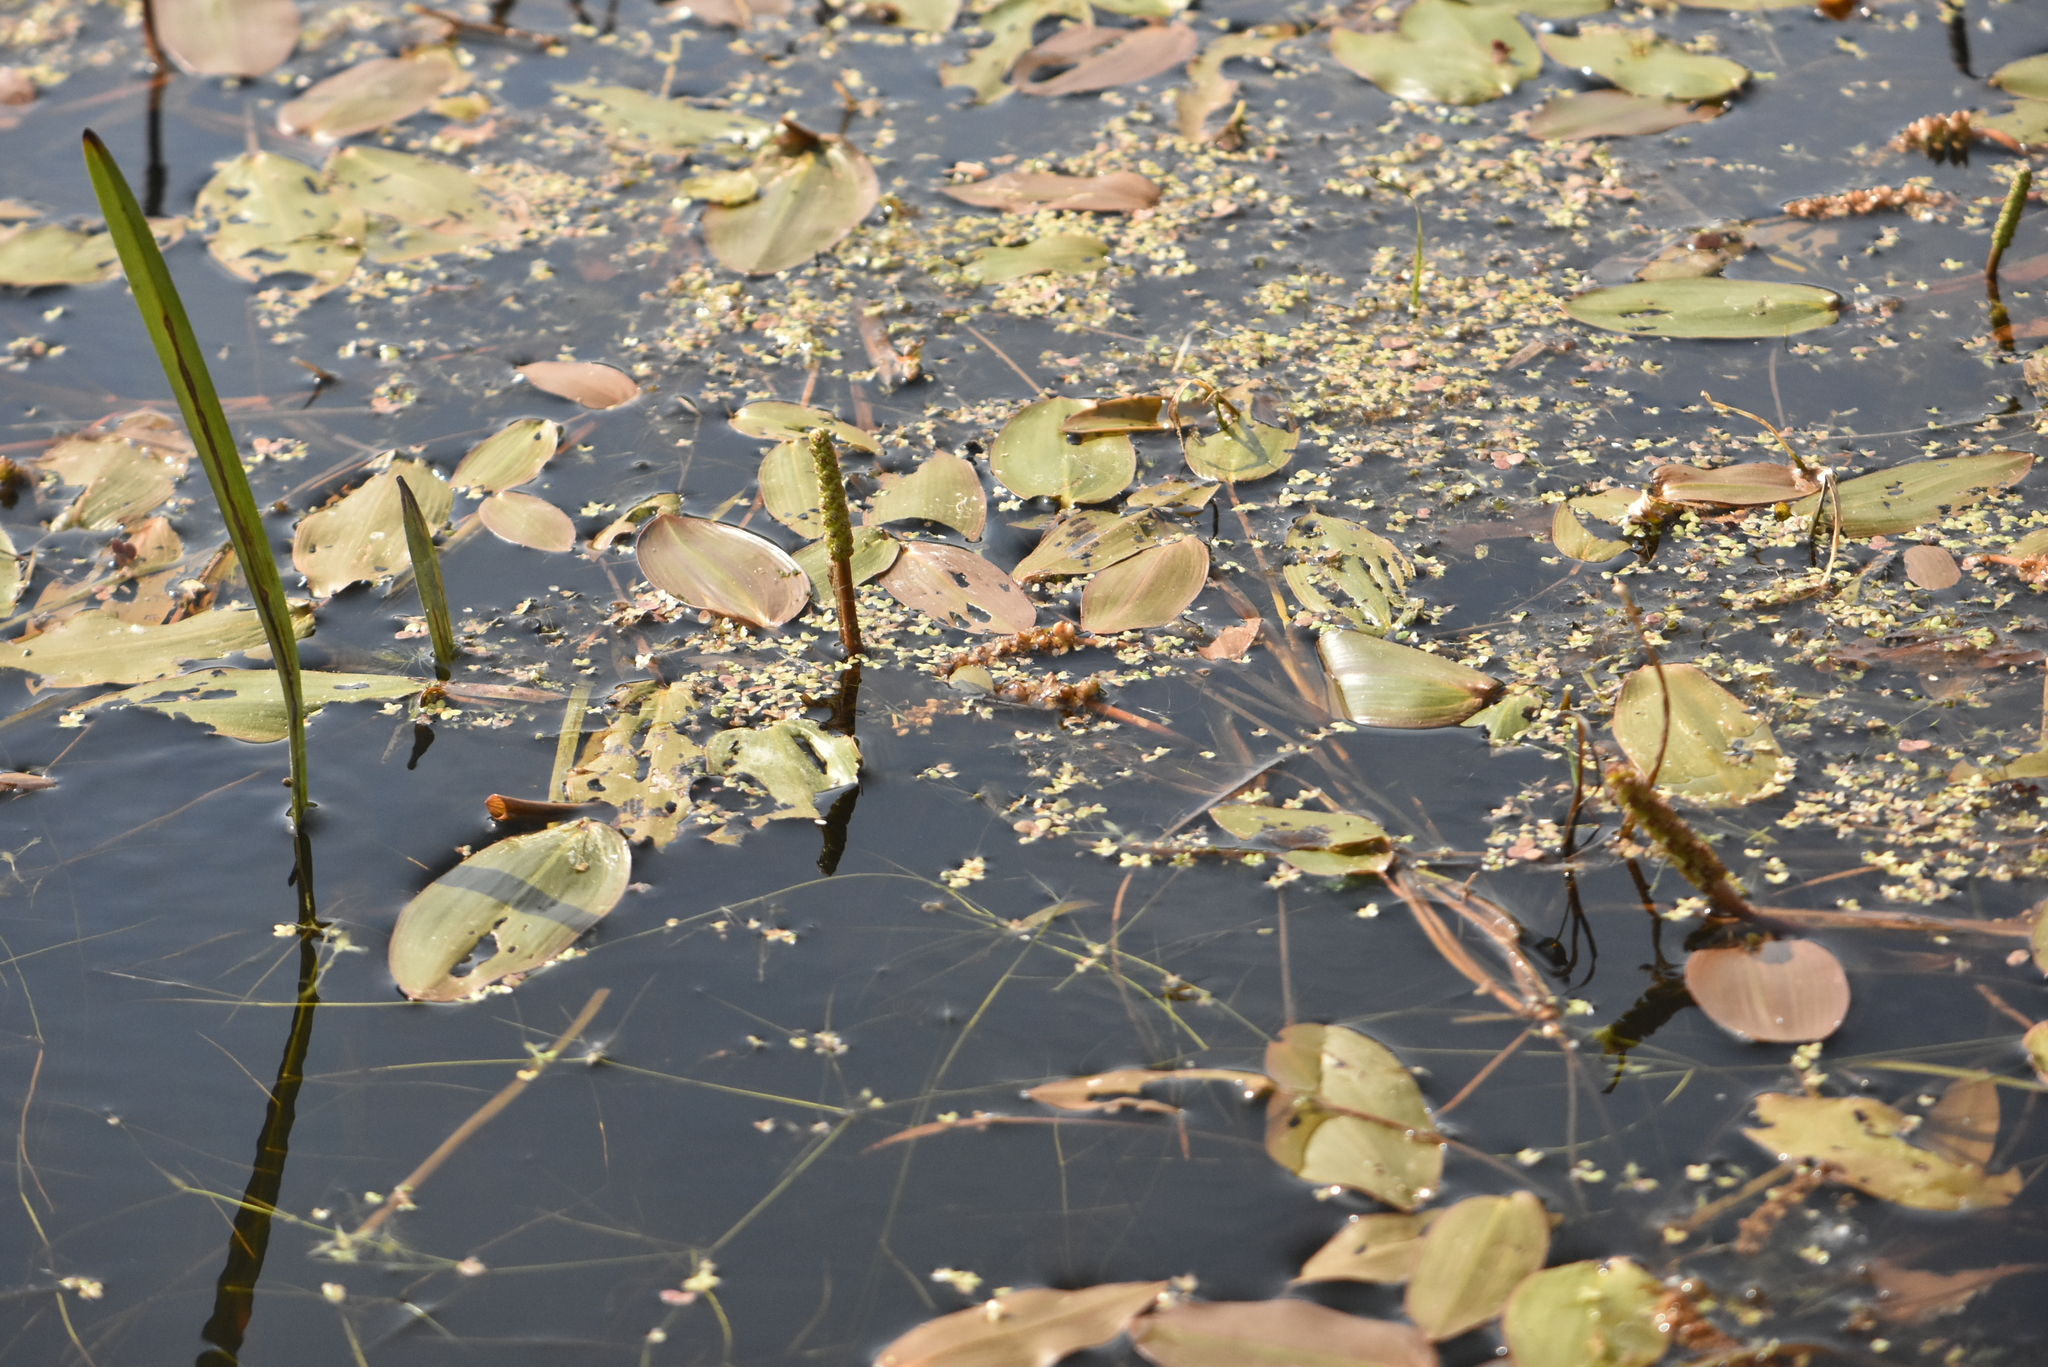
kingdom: Plantae
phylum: Tracheophyta
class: Liliopsida
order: Alismatales
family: Potamogetonaceae
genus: Potamogeton
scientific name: Potamogeton natans
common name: Broad-leaved pondweed
